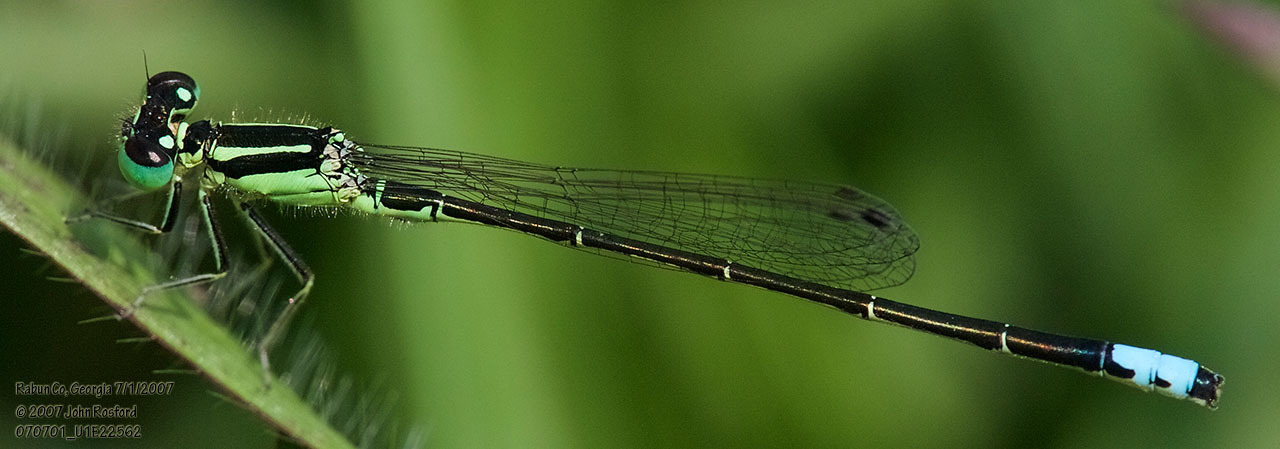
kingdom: Animalia
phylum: Arthropoda
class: Insecta
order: Odonata
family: Coenagrionidae
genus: Ischnura
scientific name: Ischnura verticalis
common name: Eastern forktail
